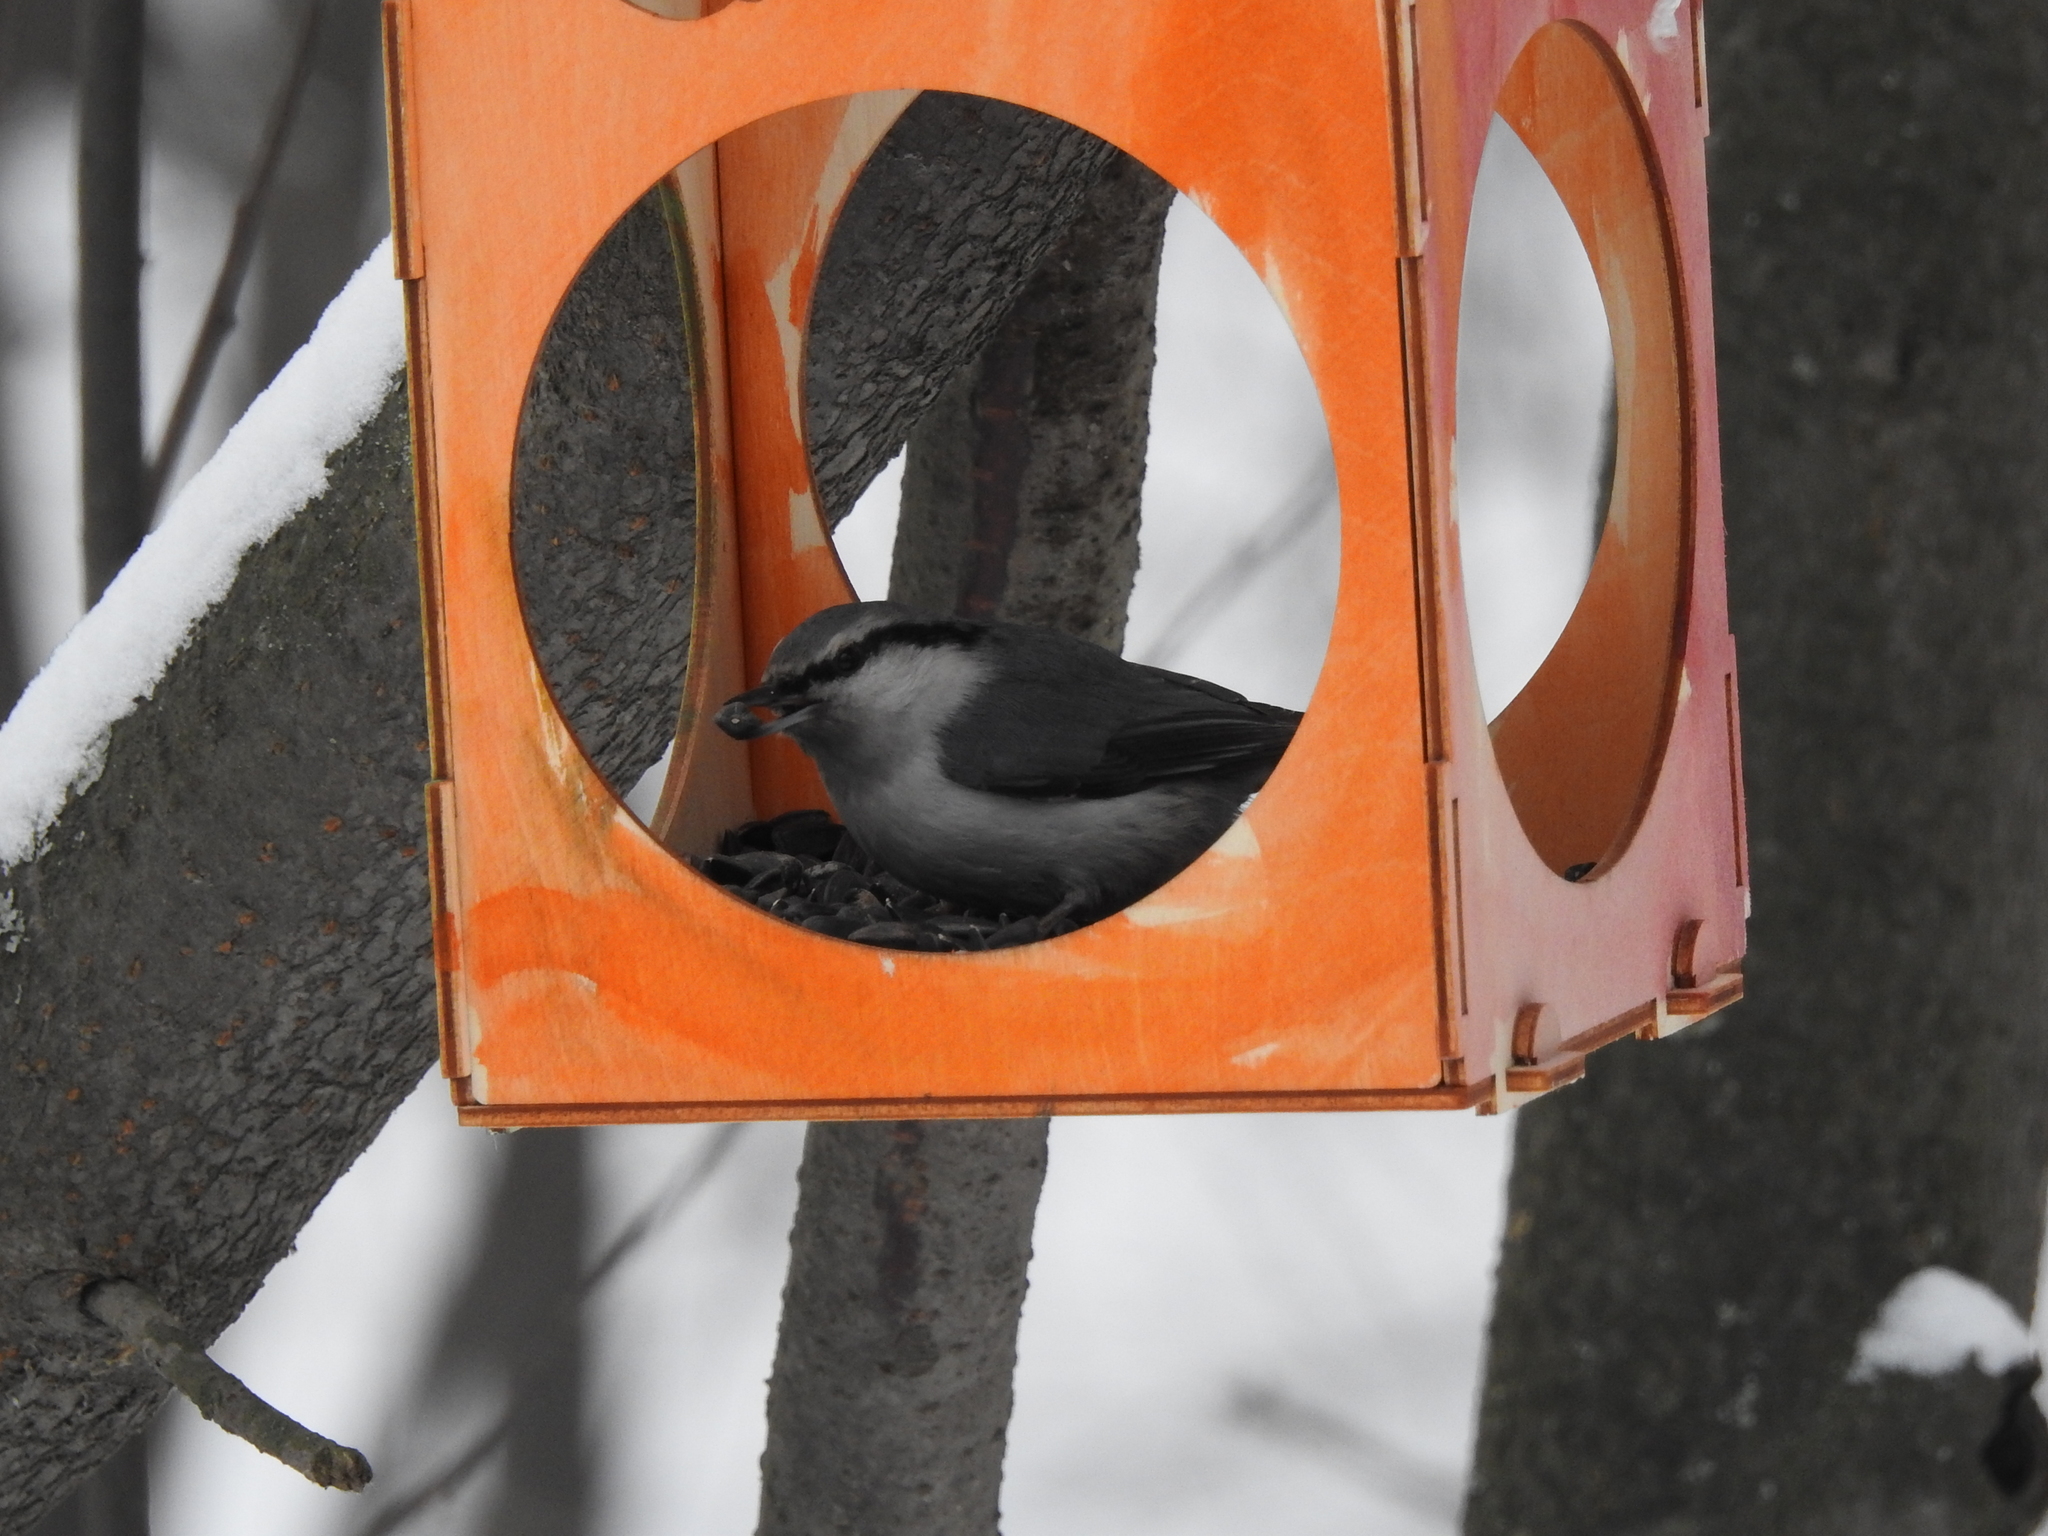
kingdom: Animalia
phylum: Chordata
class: Aves
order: Passeriformes
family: Sittidae
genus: Sitta
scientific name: Sitta europaea
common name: Eurasian nuthatch
